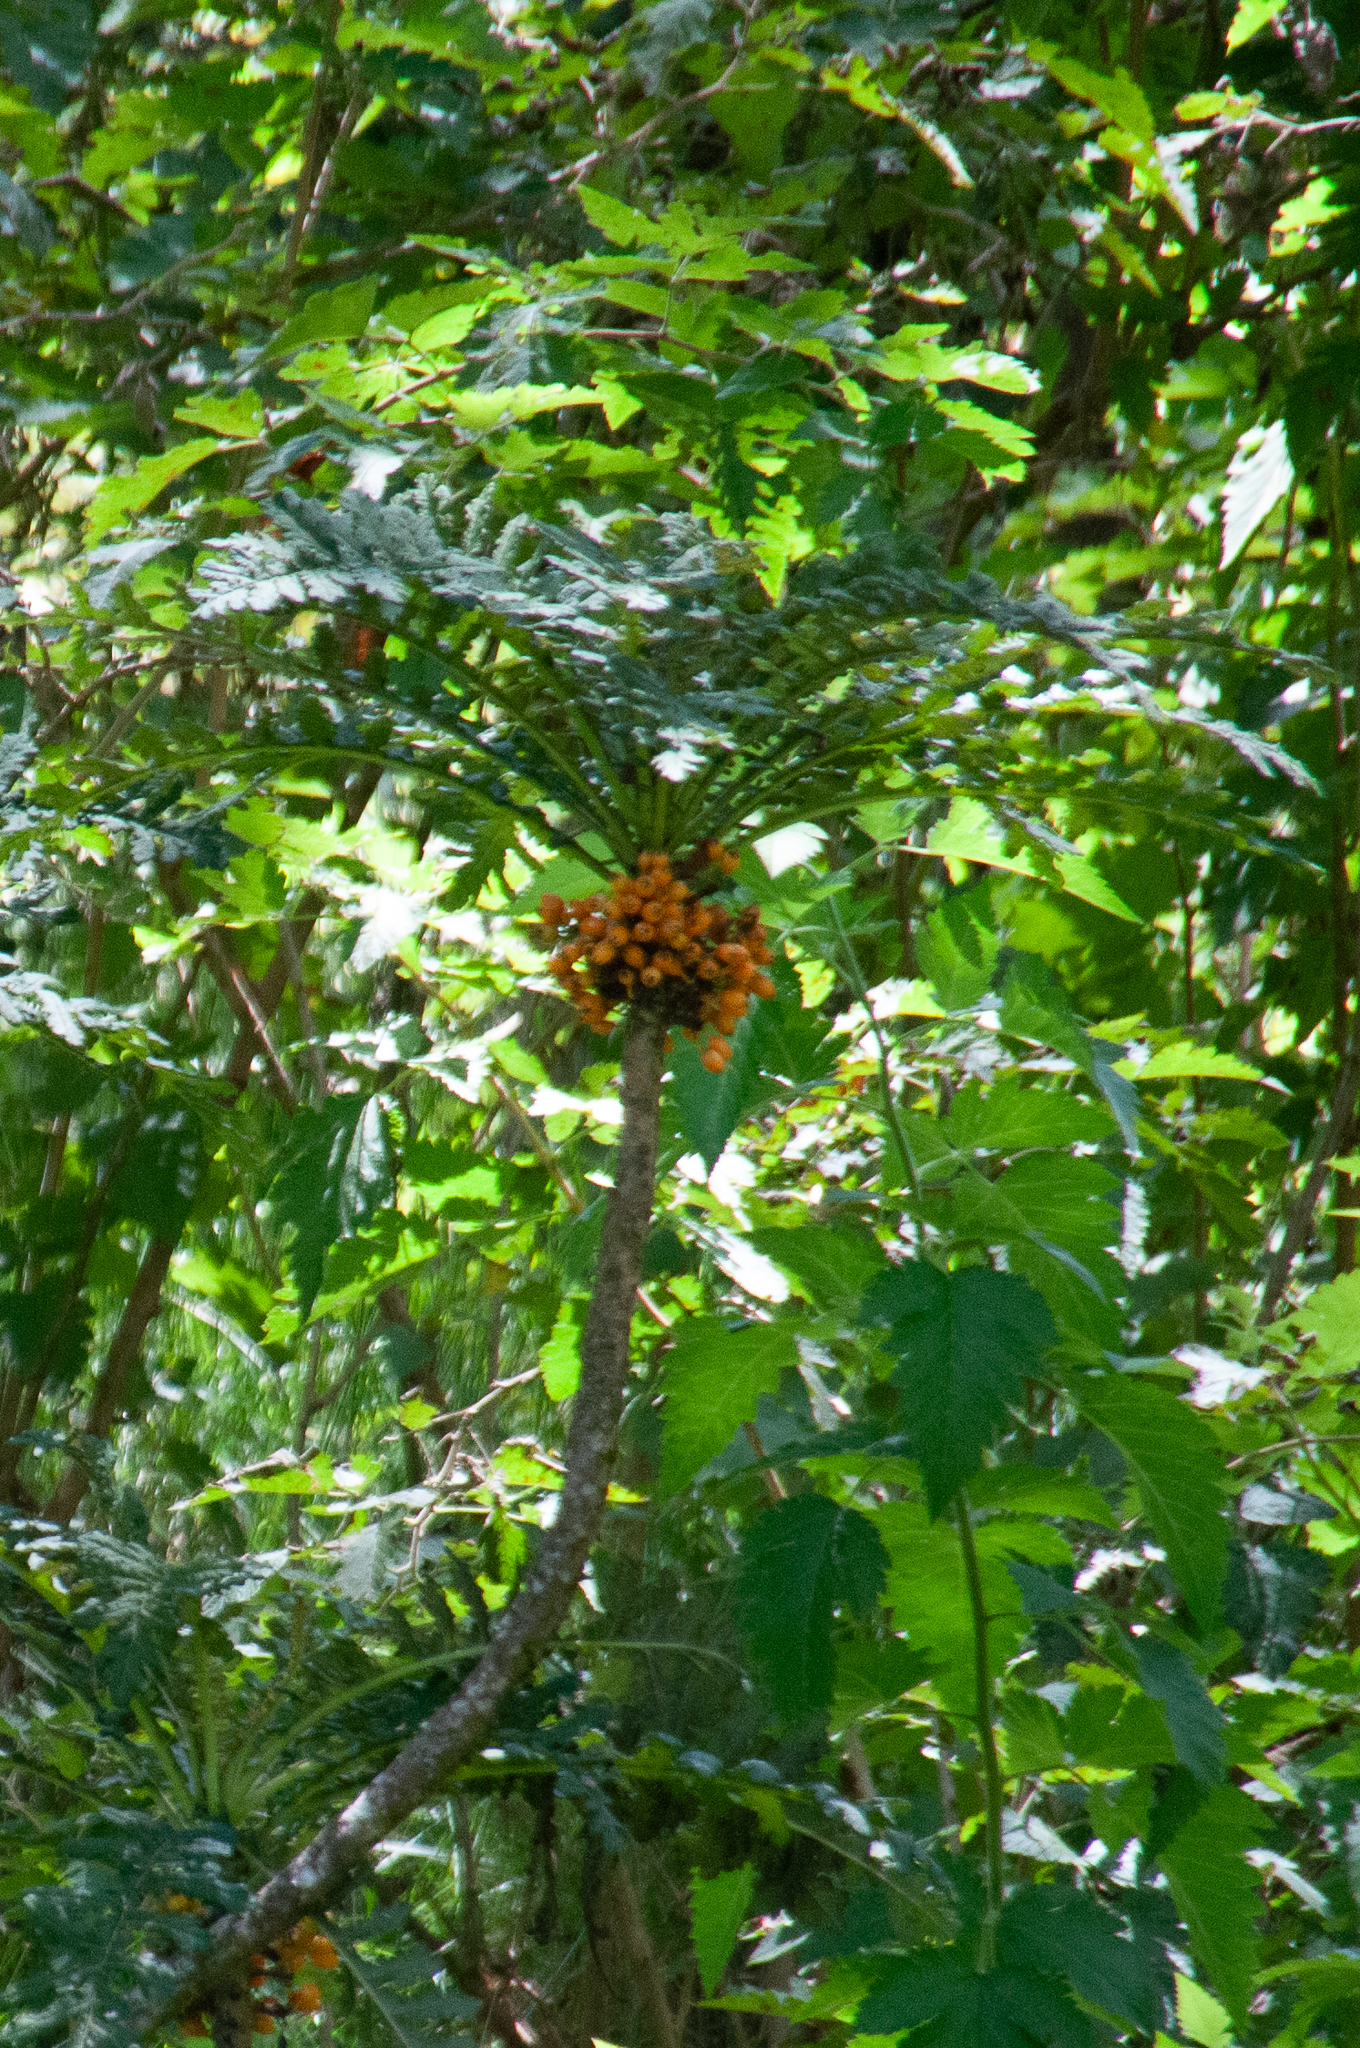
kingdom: Plantae
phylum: Tracheophyta
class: Magnoliopsida
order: Asterales
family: Campanulaceae
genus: Cyanea
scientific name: Cyanea shipmanii
